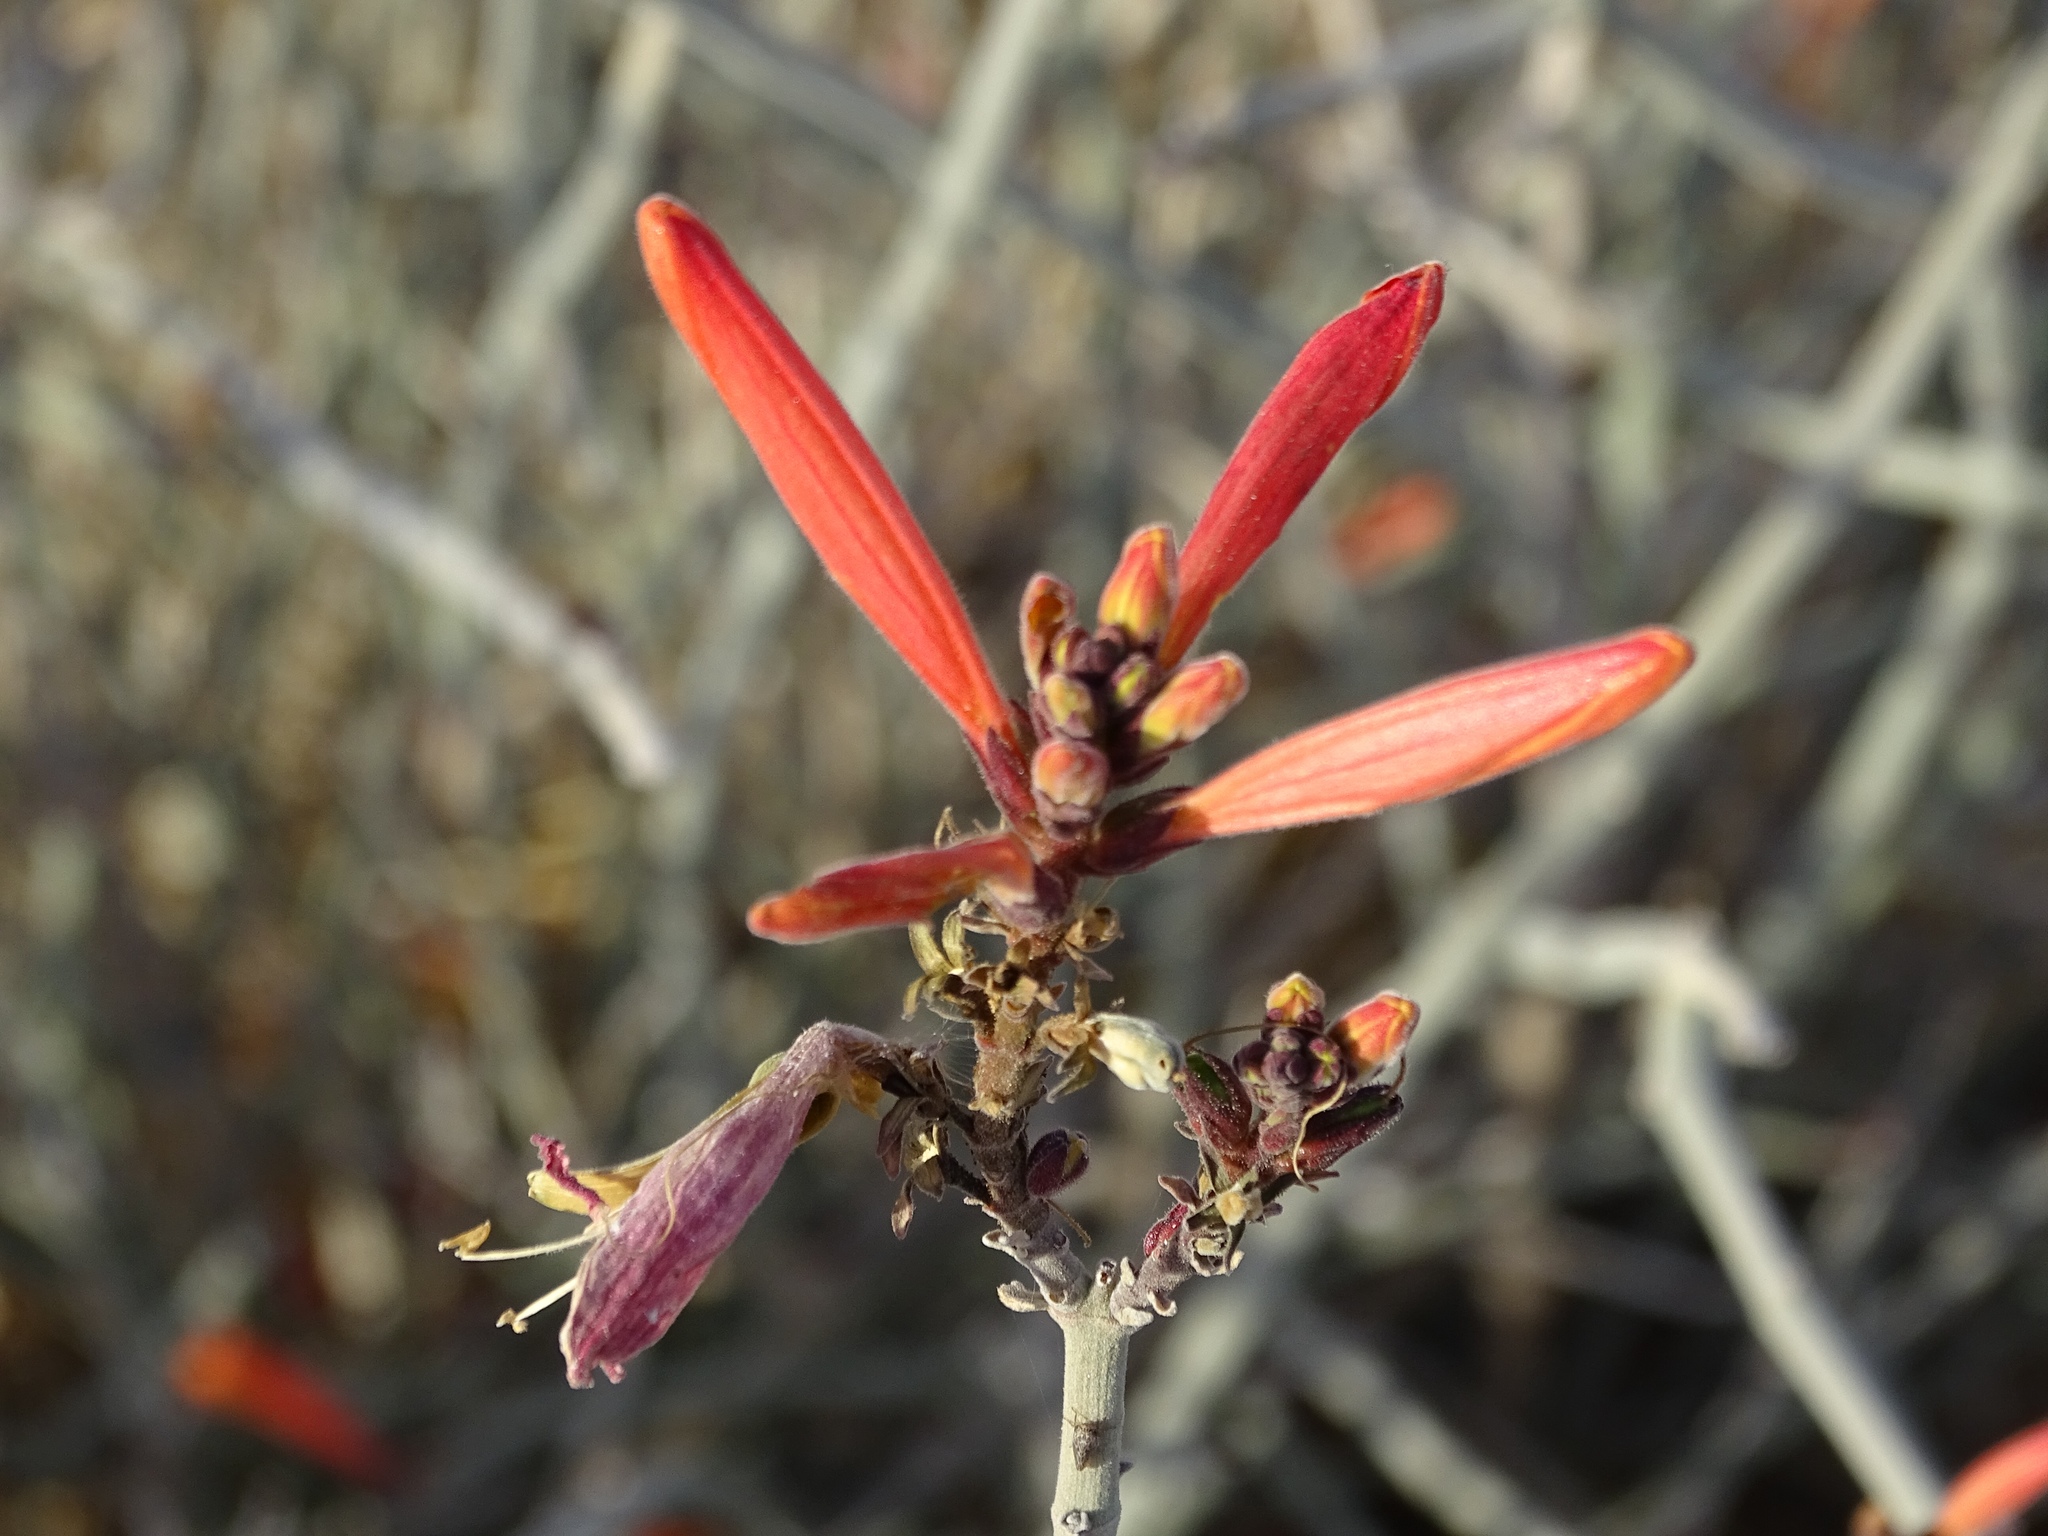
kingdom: Plantae
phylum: Tracheophyta
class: Magnoliopsida
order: Lamiales
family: Acanthaceae
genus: Justicia
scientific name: Justicia californica
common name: Chuparosa-honeysuckle
